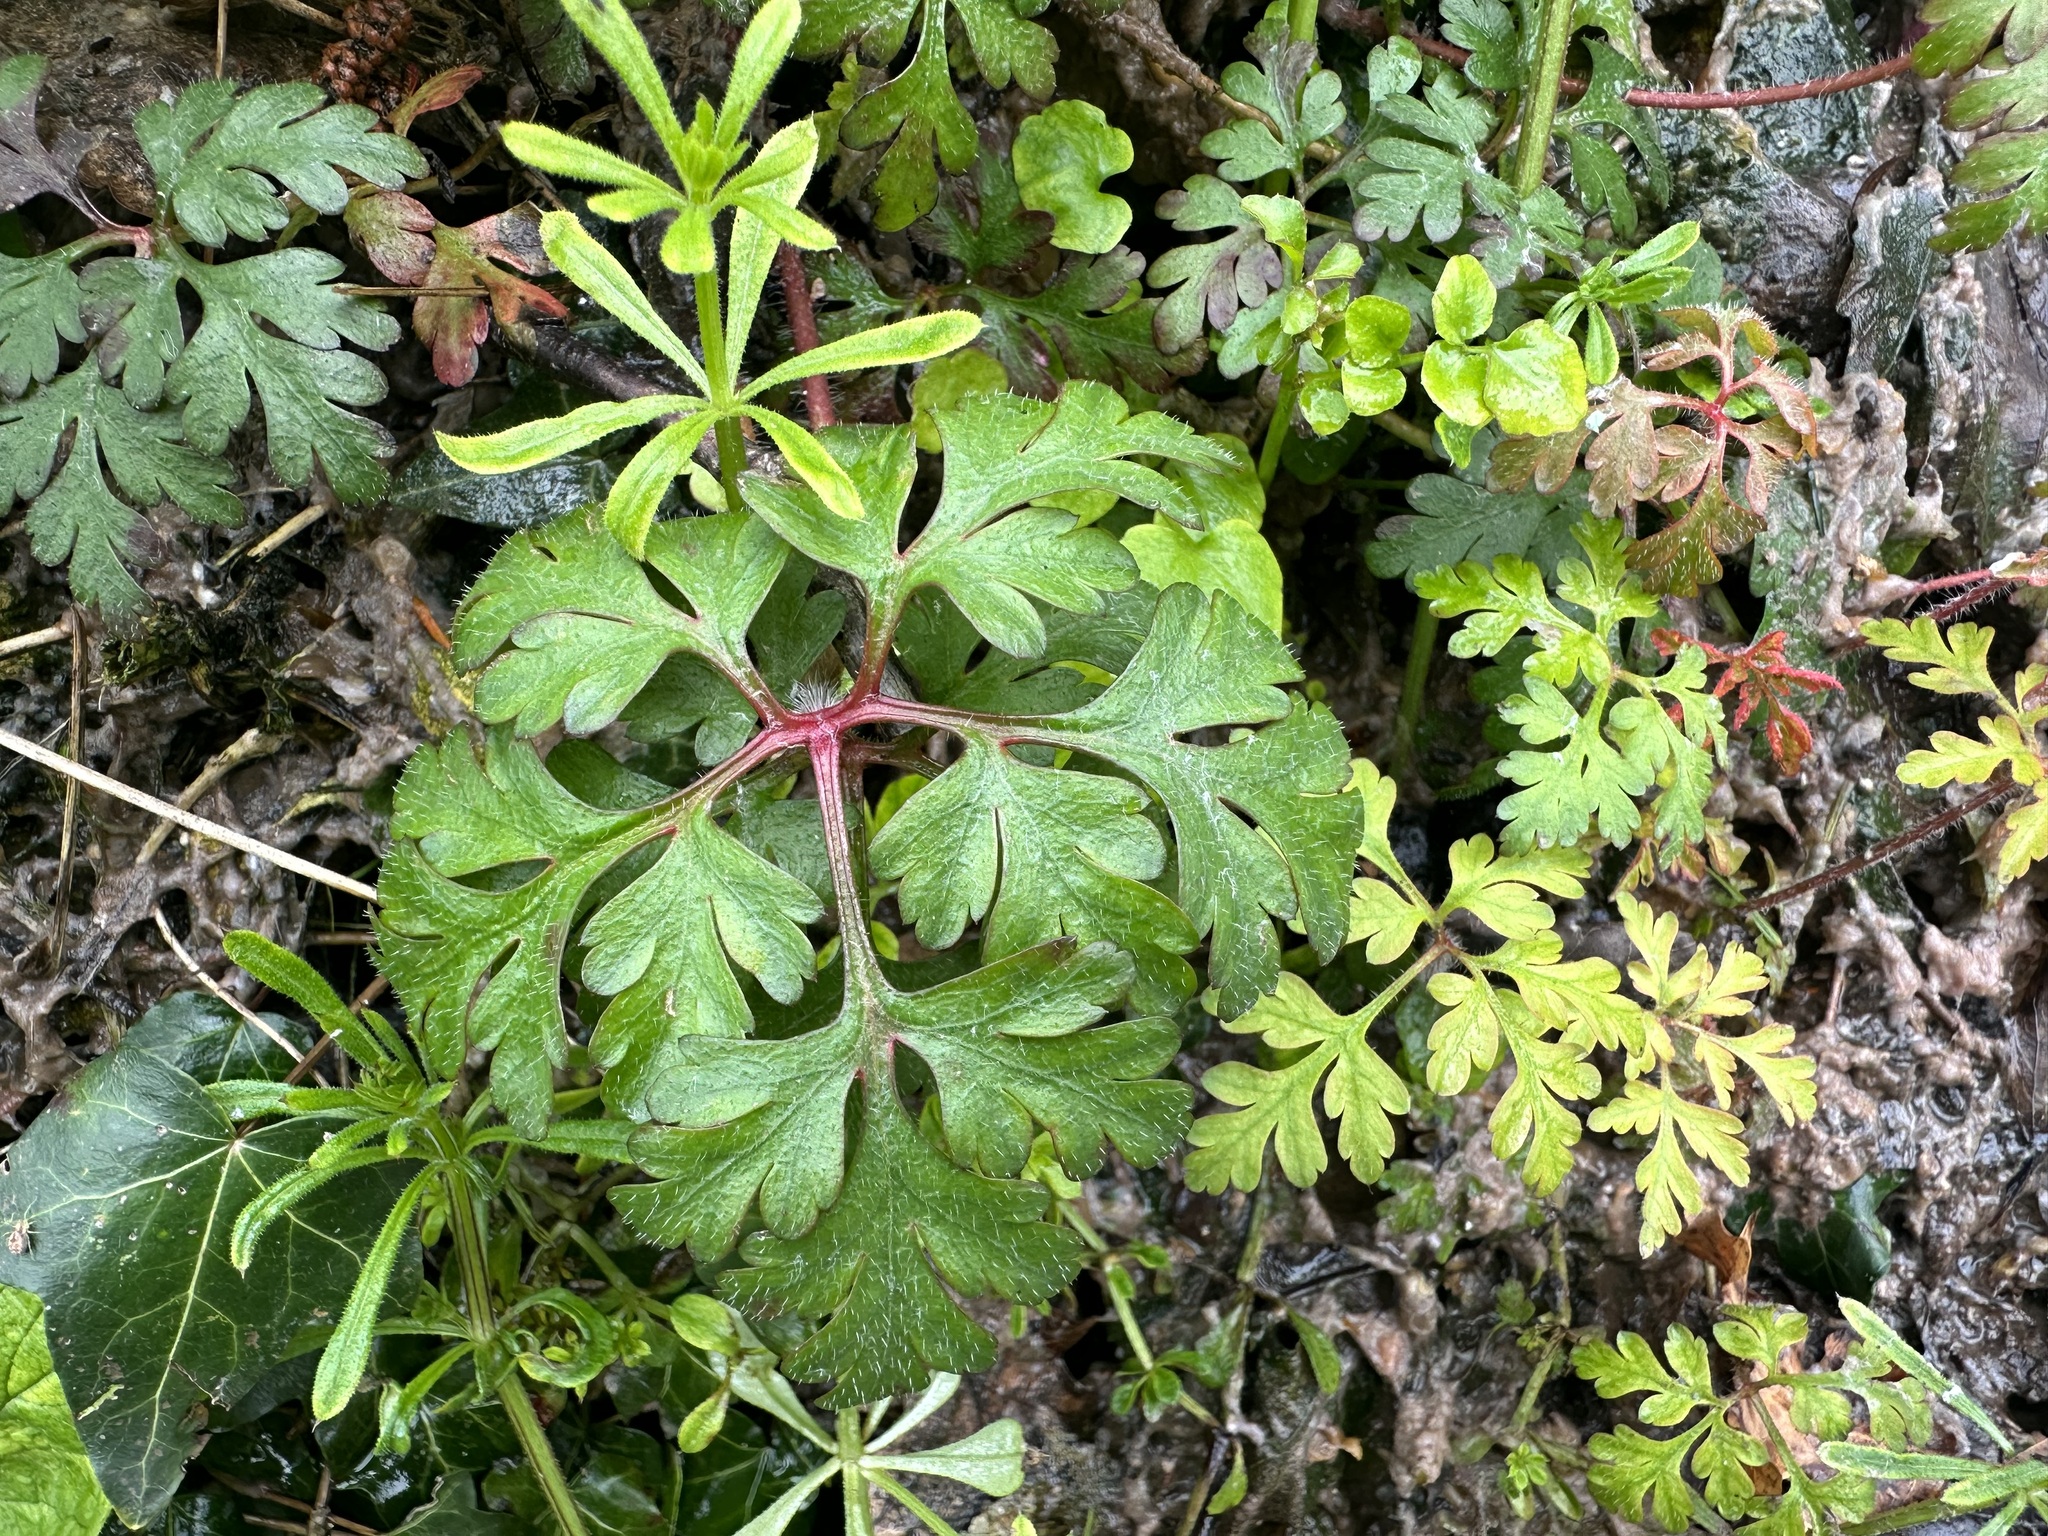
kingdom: Plantae
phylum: Tracheophyta
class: Magnoliopsida
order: Geraniales
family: Geraniaceae
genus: Geranium
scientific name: Geranium robertianum
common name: Herb-robert
